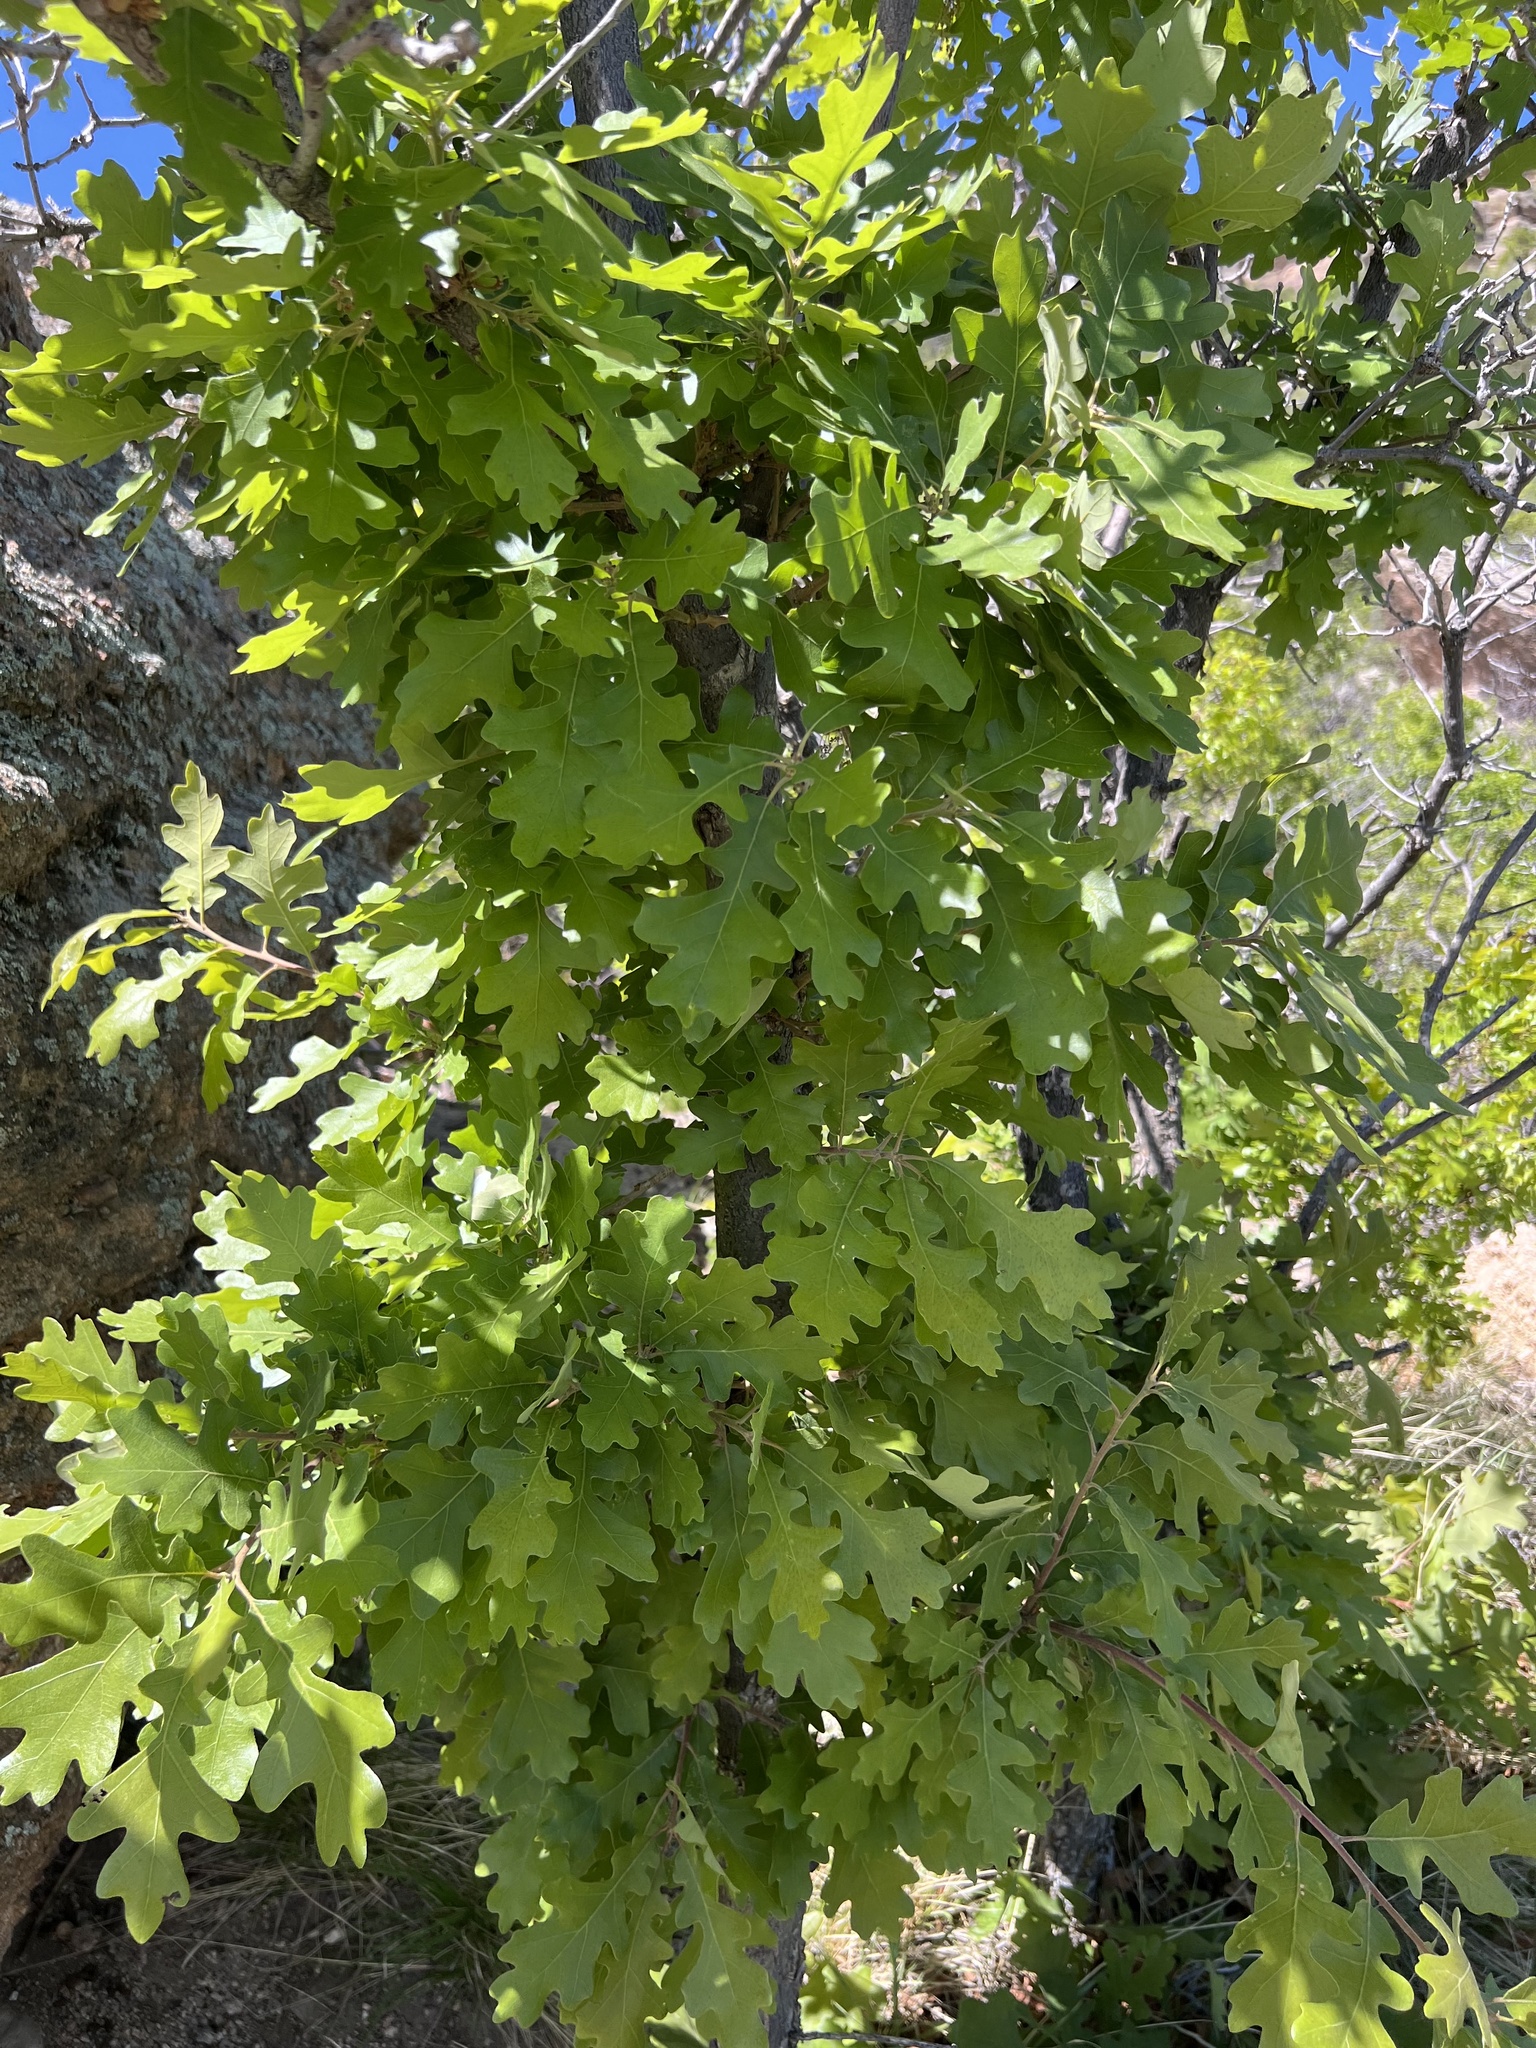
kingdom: Plantae
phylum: Tracheophyta
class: Magnoliopsida
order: Fagales
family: Fagaceae
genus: Quercus
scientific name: Quercus gambelii
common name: Gambel oak
